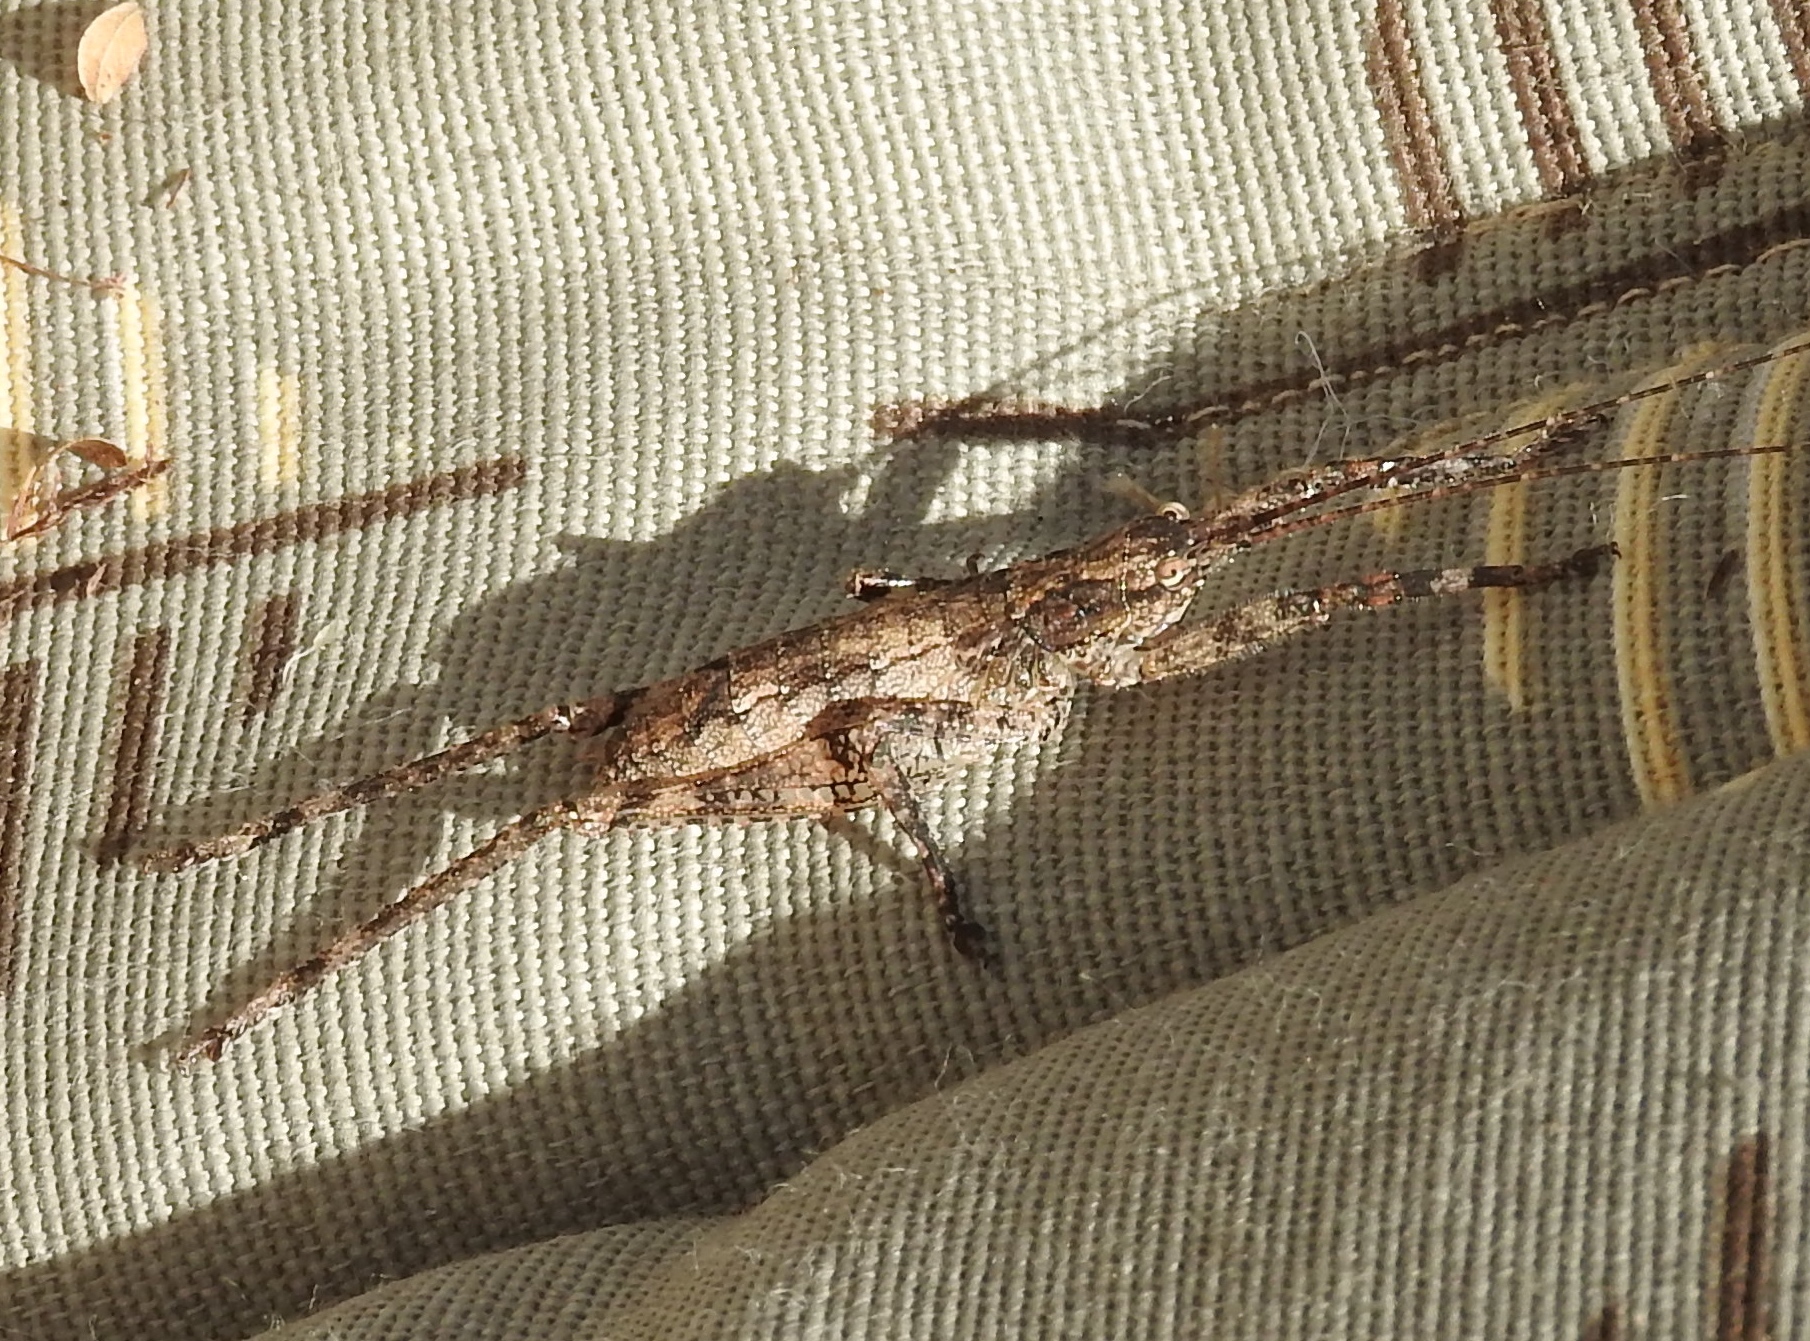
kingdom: Animalia
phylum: Arthropoda
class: Insecta
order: Orthoptera
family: Tettigoniidae
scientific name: Tettigoniidae
